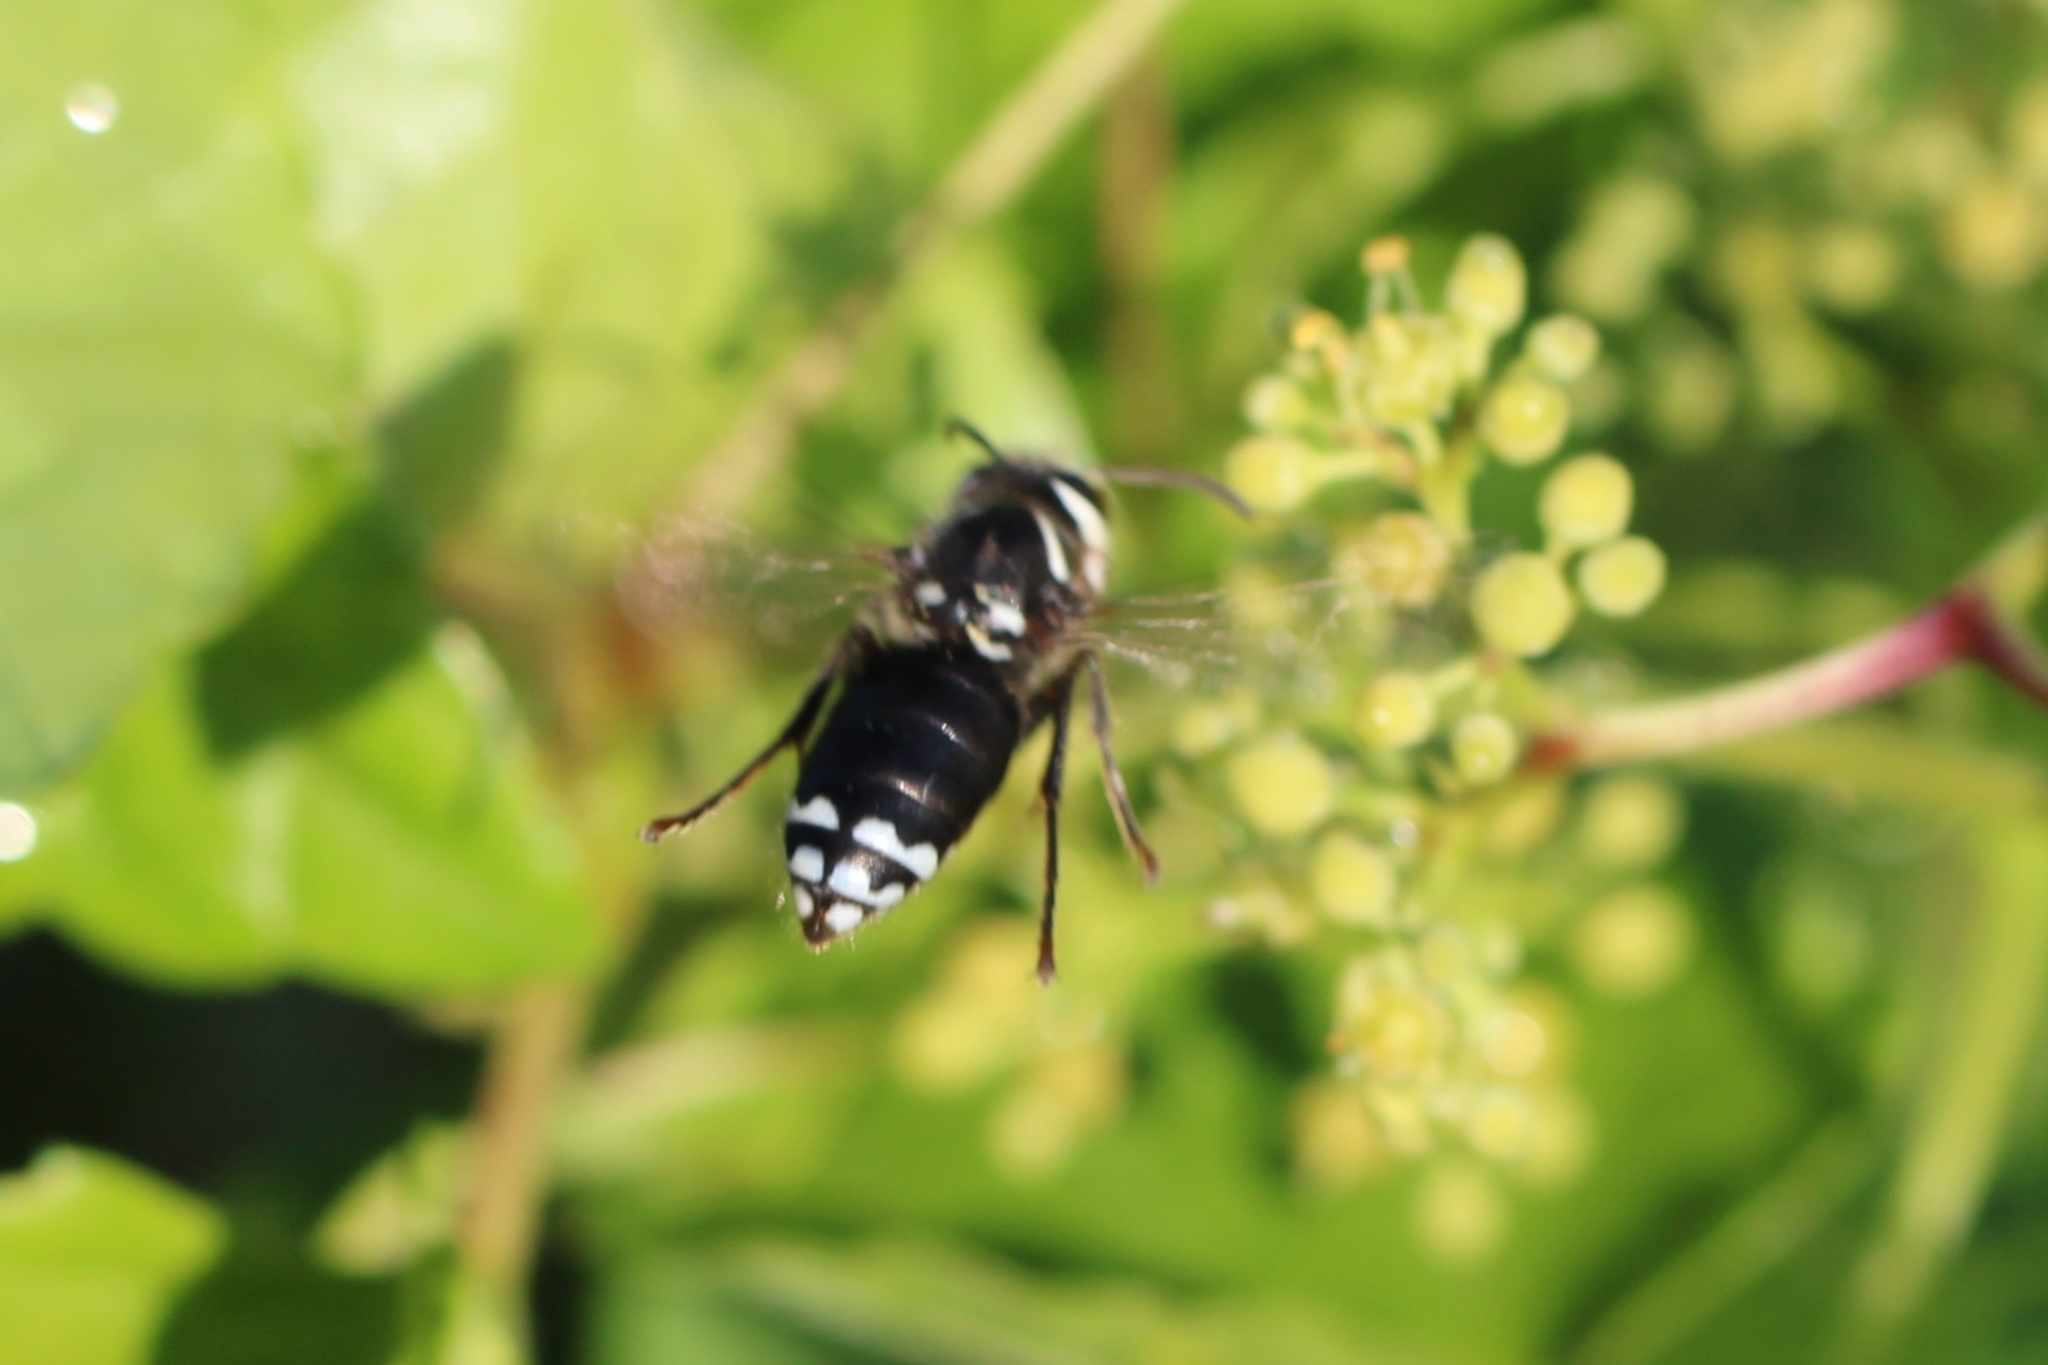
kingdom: Animalia
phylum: Arthropoda
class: Insecta
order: Hymenoptera
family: Vespidae
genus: Dolichovespula
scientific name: Dolichovespula maculata
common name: Bald-faced hornet
